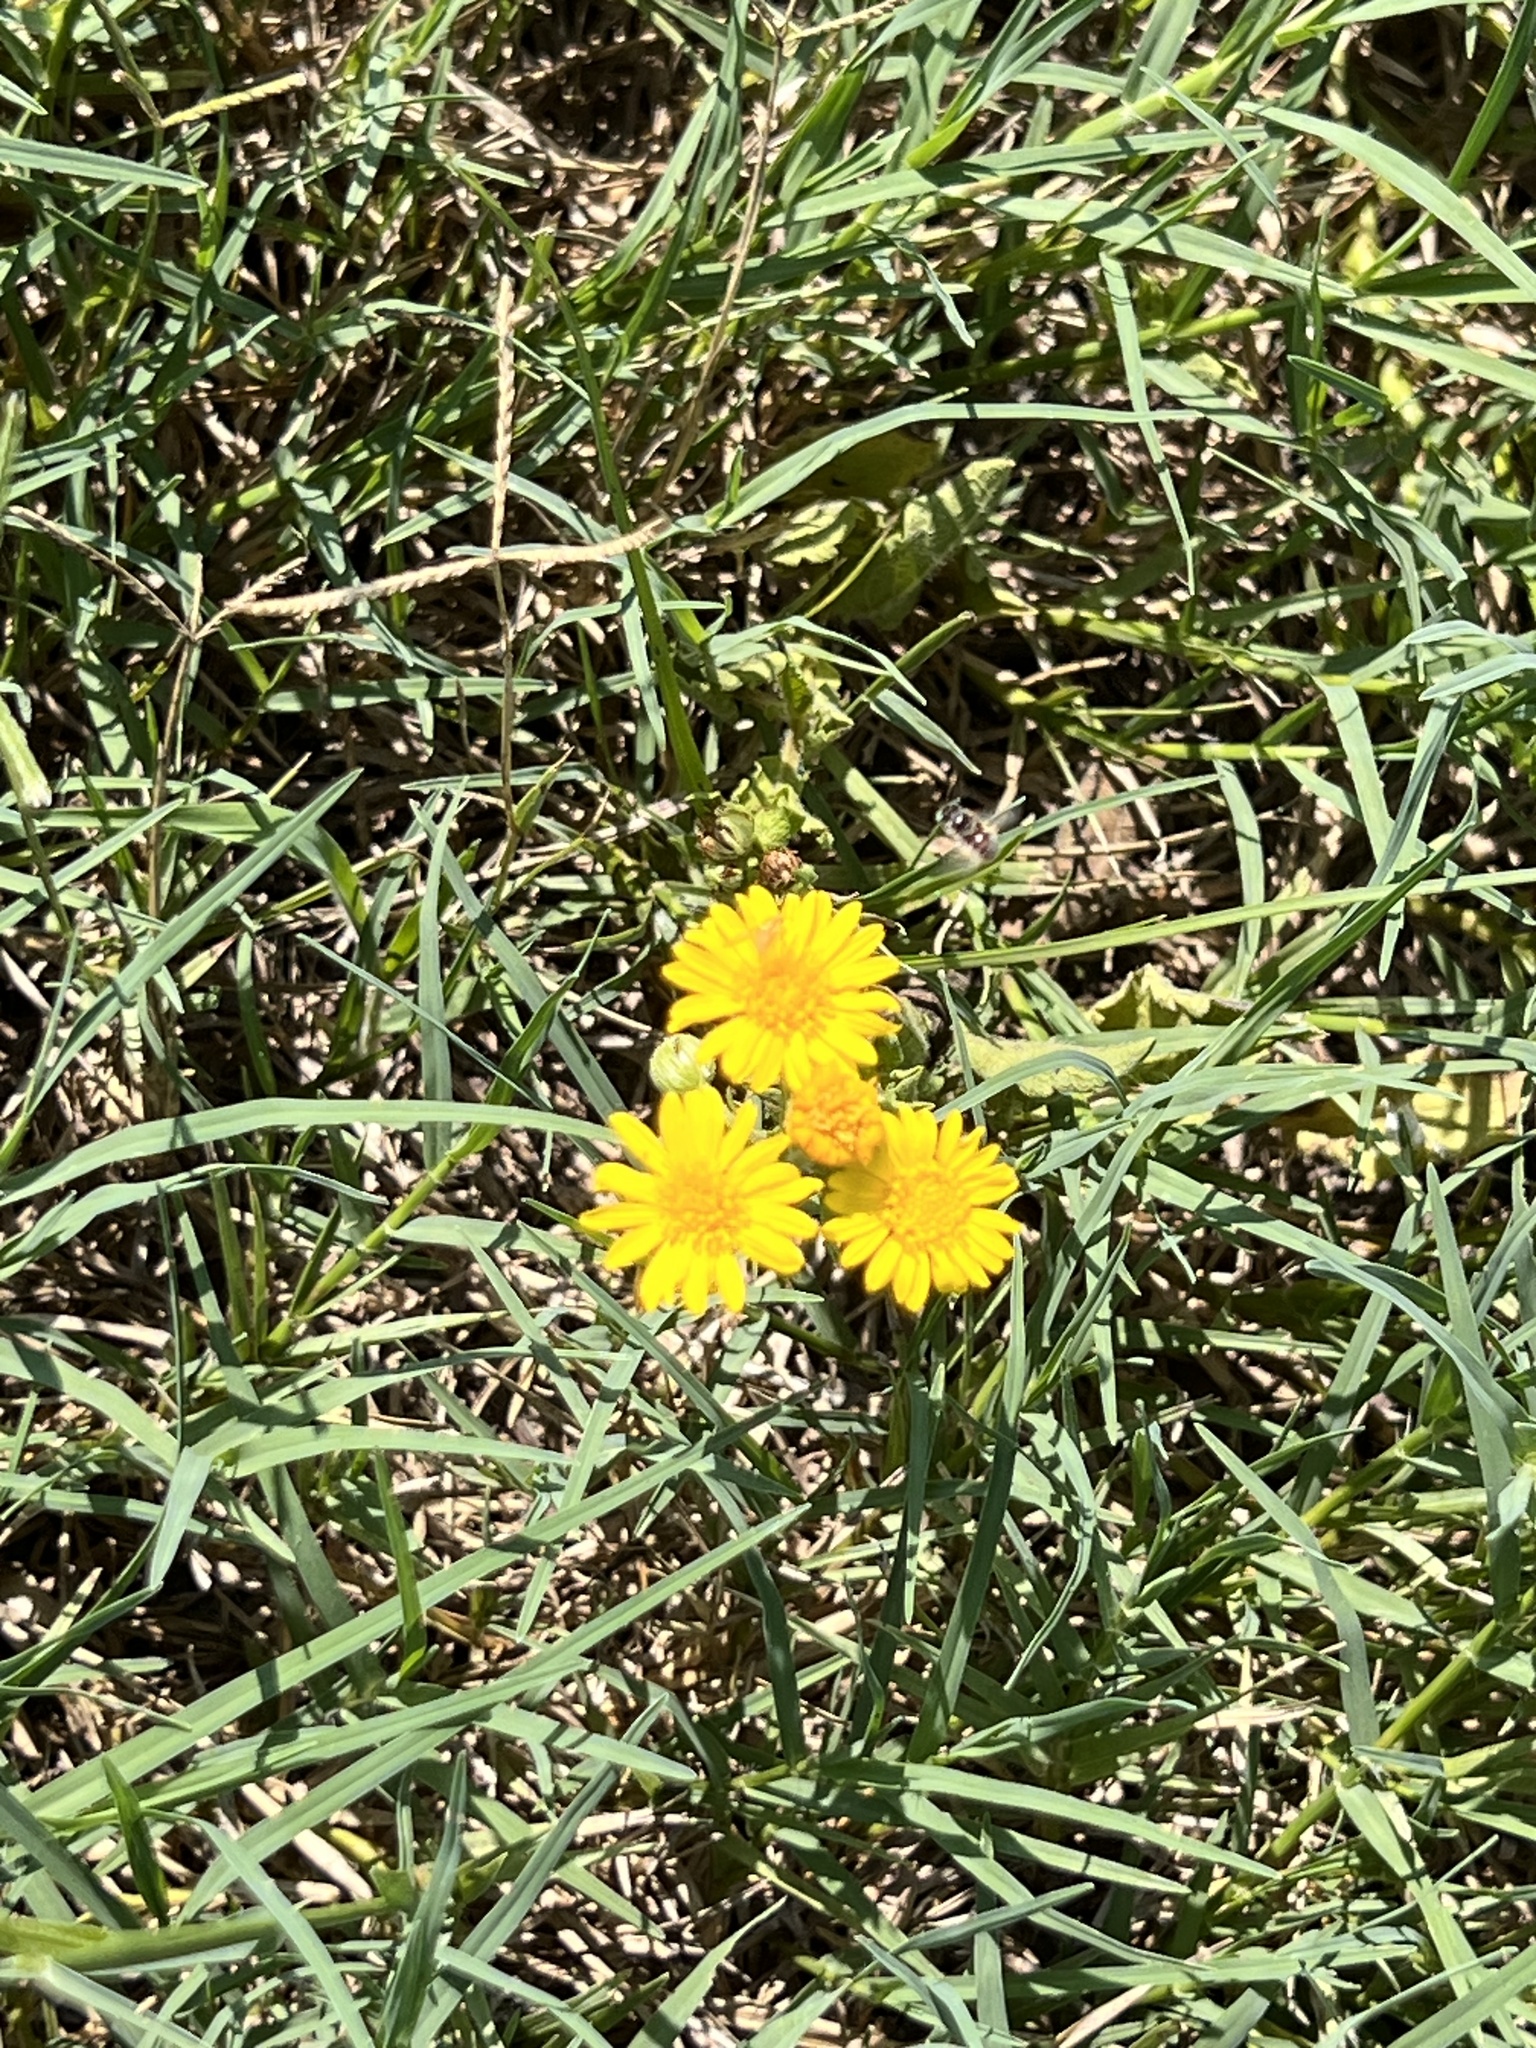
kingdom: Plantae
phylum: Tracheophyta
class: Magnoliopsida
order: Asterales
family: Asteraceae
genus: Heterotheca
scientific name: Heterotheca subaxillaris
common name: Camphorweed
